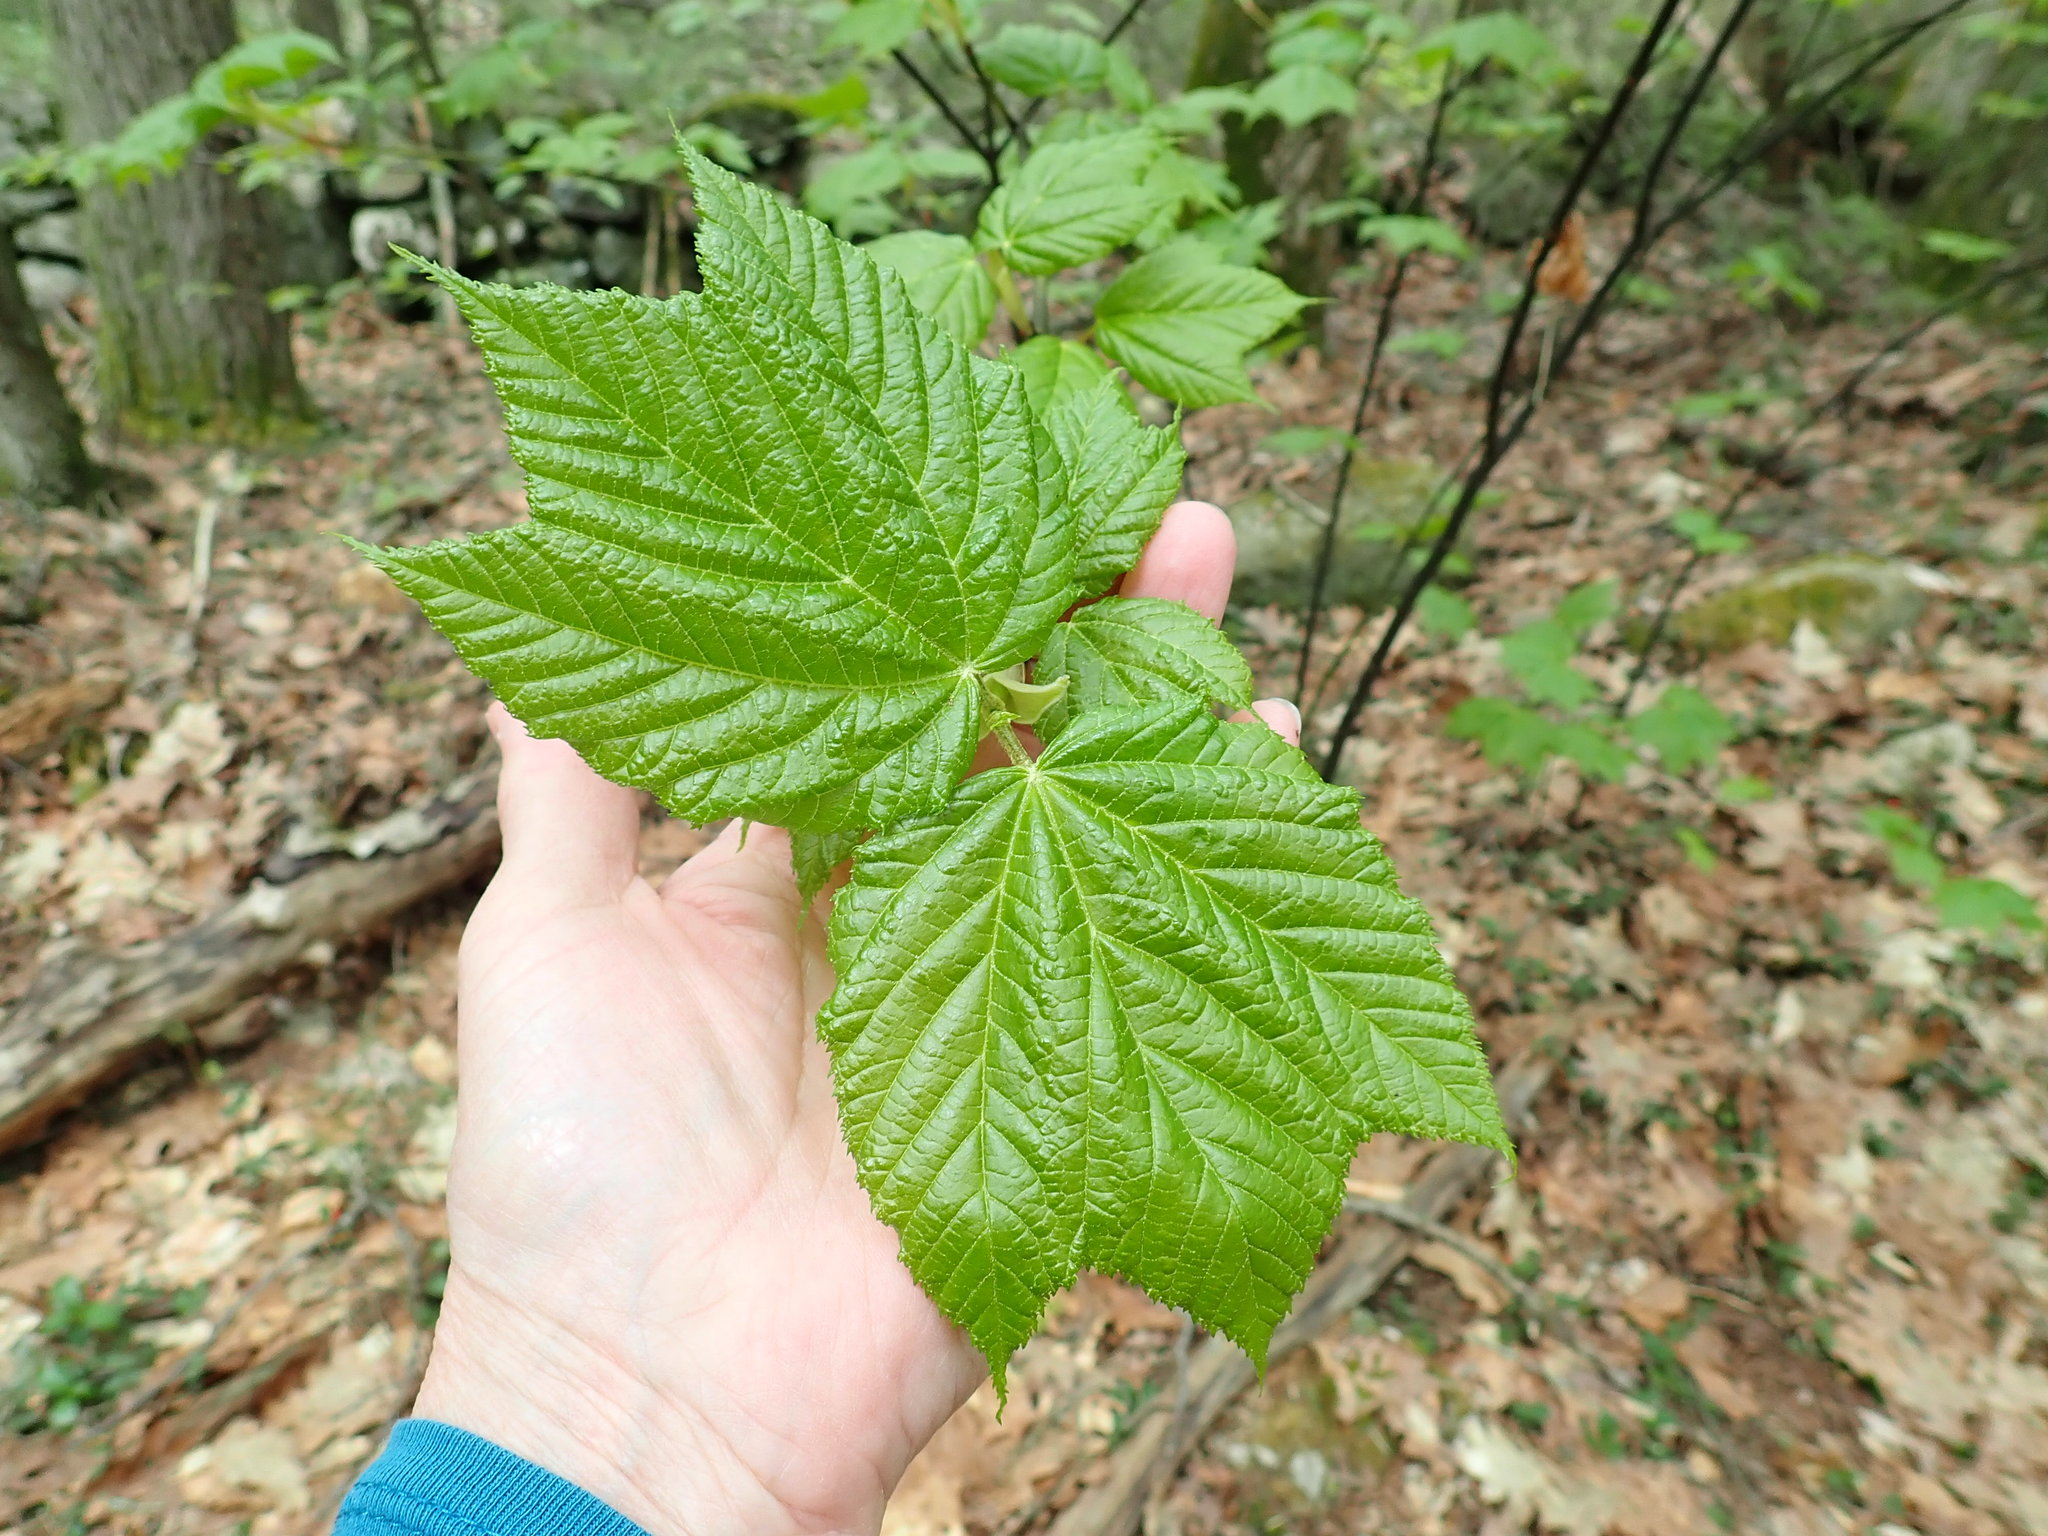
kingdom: Plantae
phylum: Tracheophyta
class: Magnoliopsida
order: Sapindales
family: Sapindaceae
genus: Acer
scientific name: Acer pensylvanicum
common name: Moosewood
